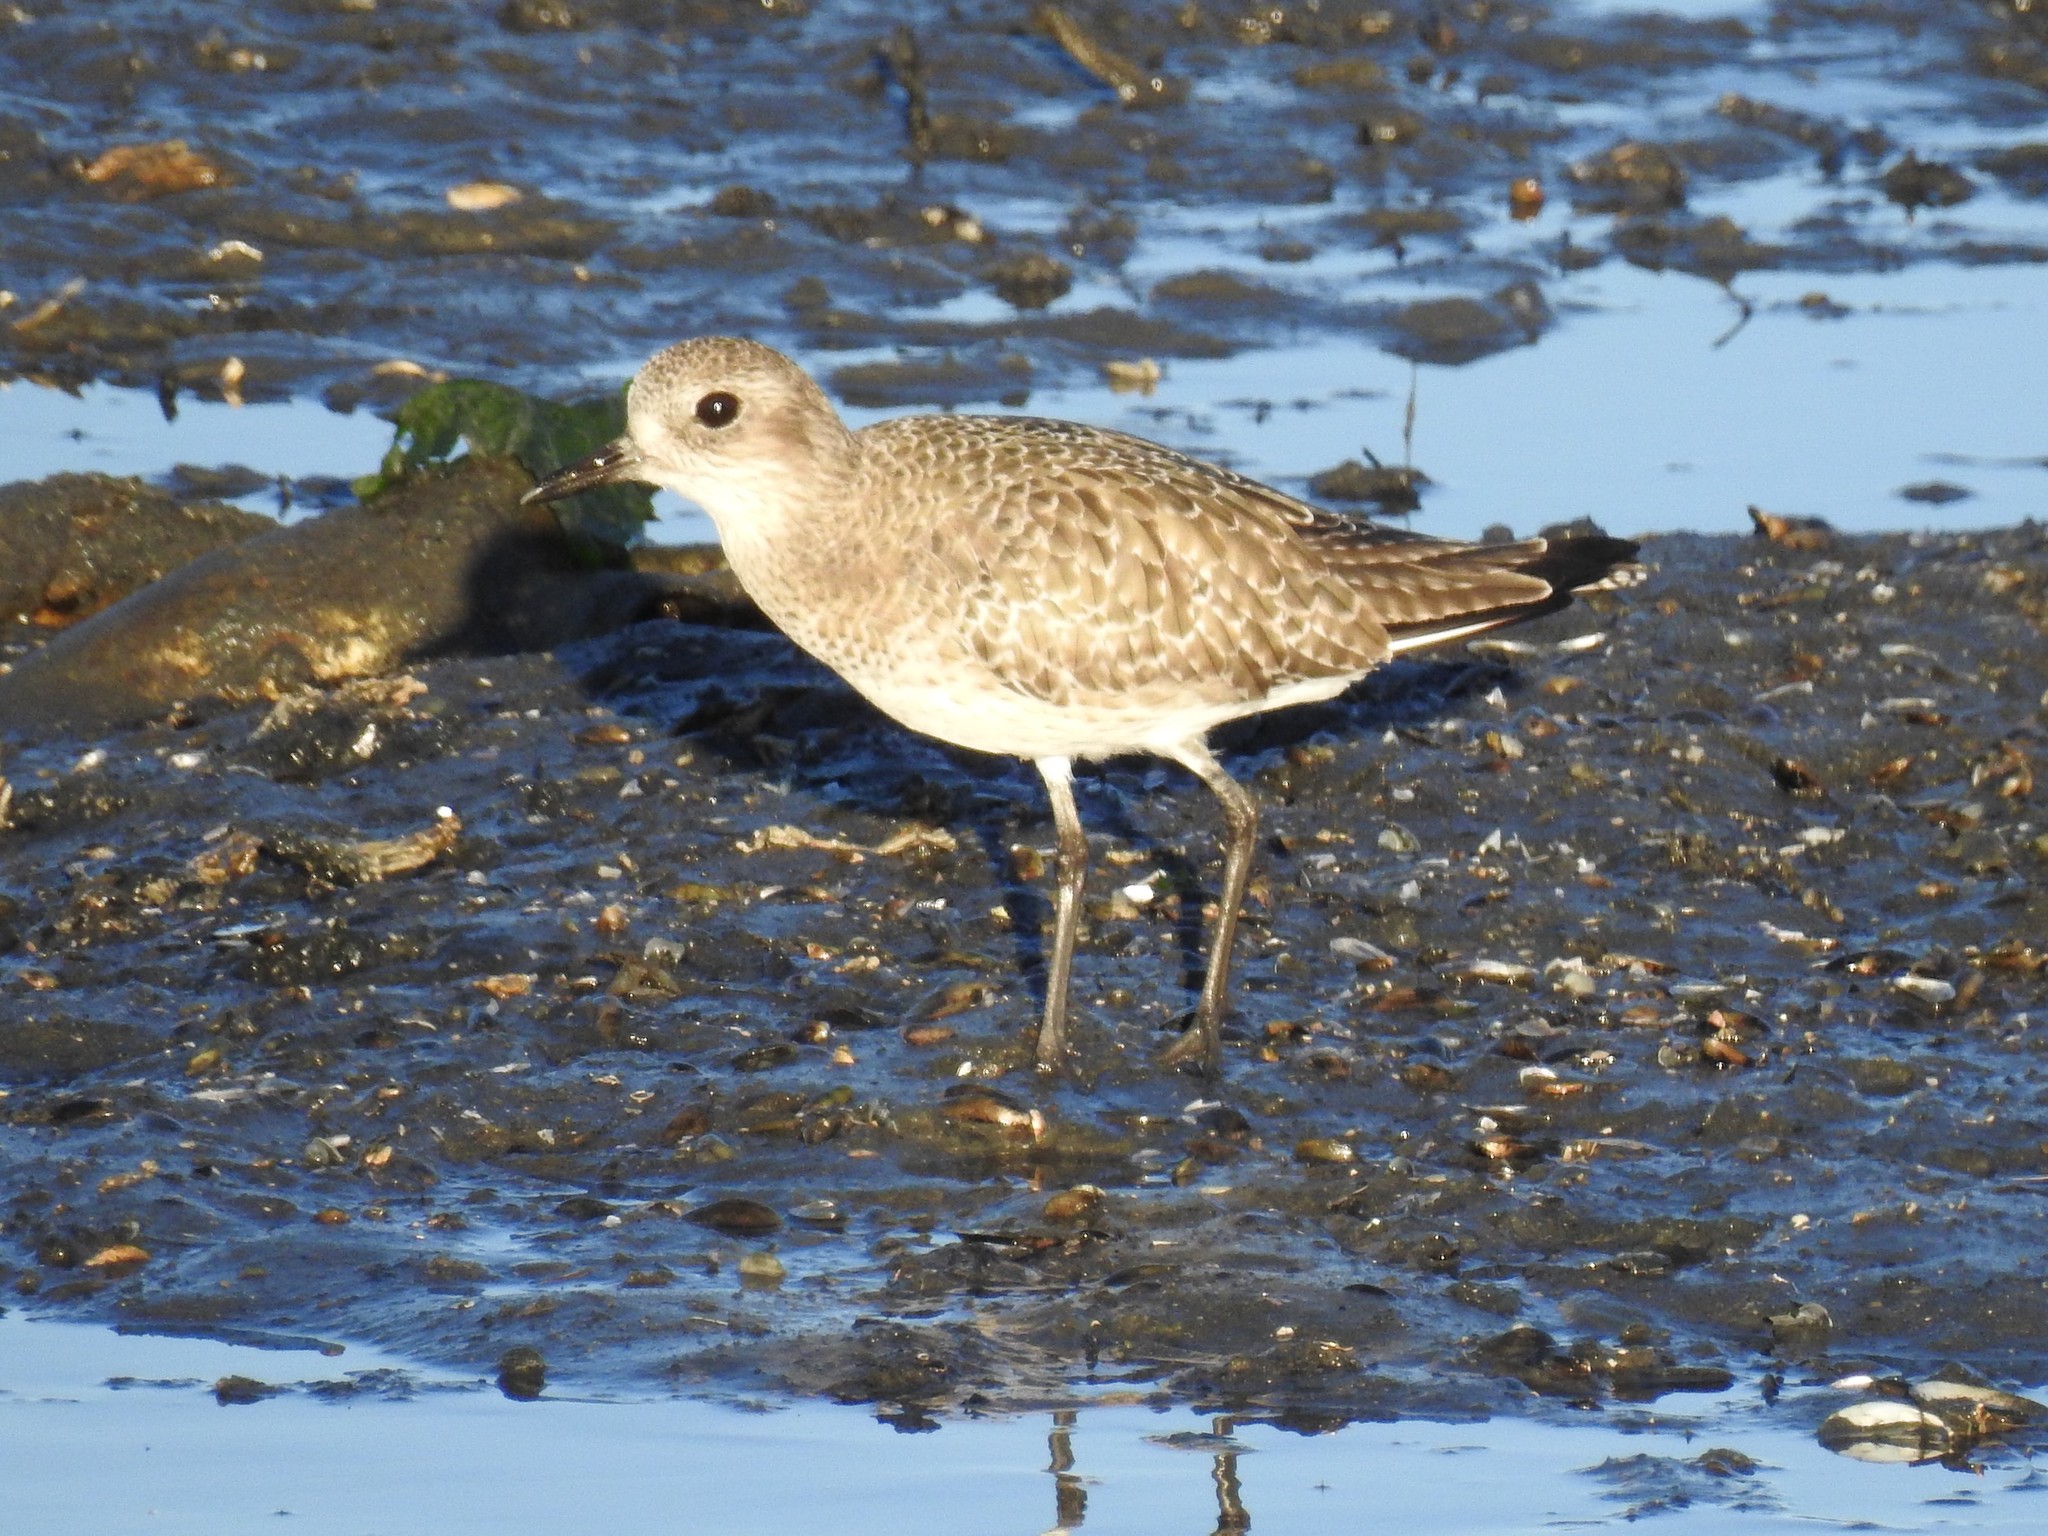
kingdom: Animalia
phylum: Chordata
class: Aves
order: Charadriiformes
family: Charadriidae
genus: Pluvialis
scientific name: Pluvialis squatarola
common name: Grey plover
